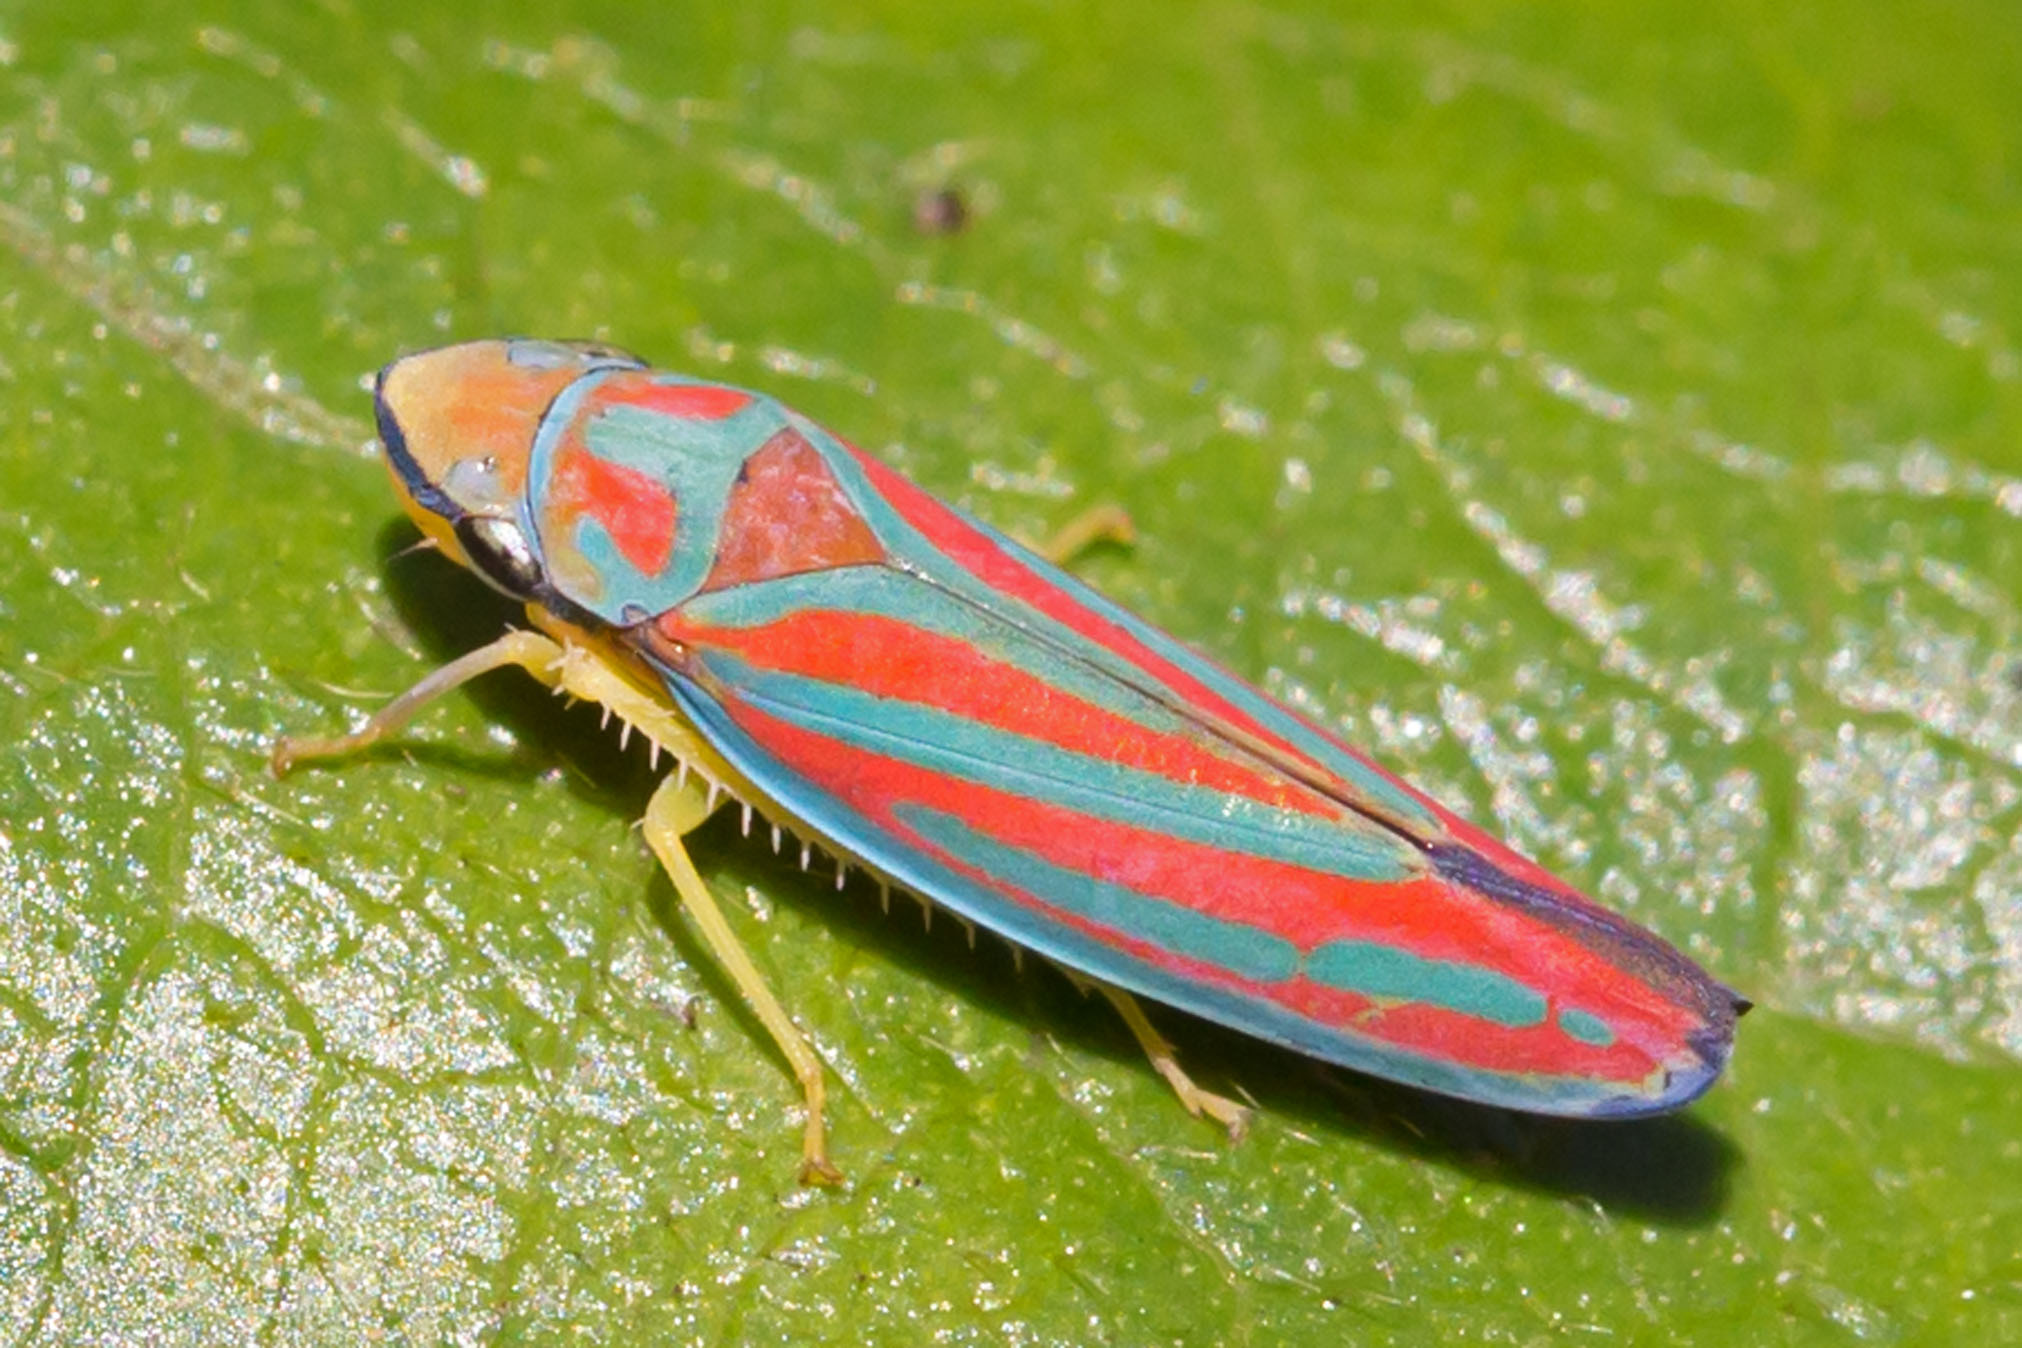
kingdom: Animalia
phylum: Arthropoda
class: Insecta
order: Hemiptera
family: Cicadellidae
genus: Graphocephala
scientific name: Graphocephala coccinea
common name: Candy-striped leafhopper
